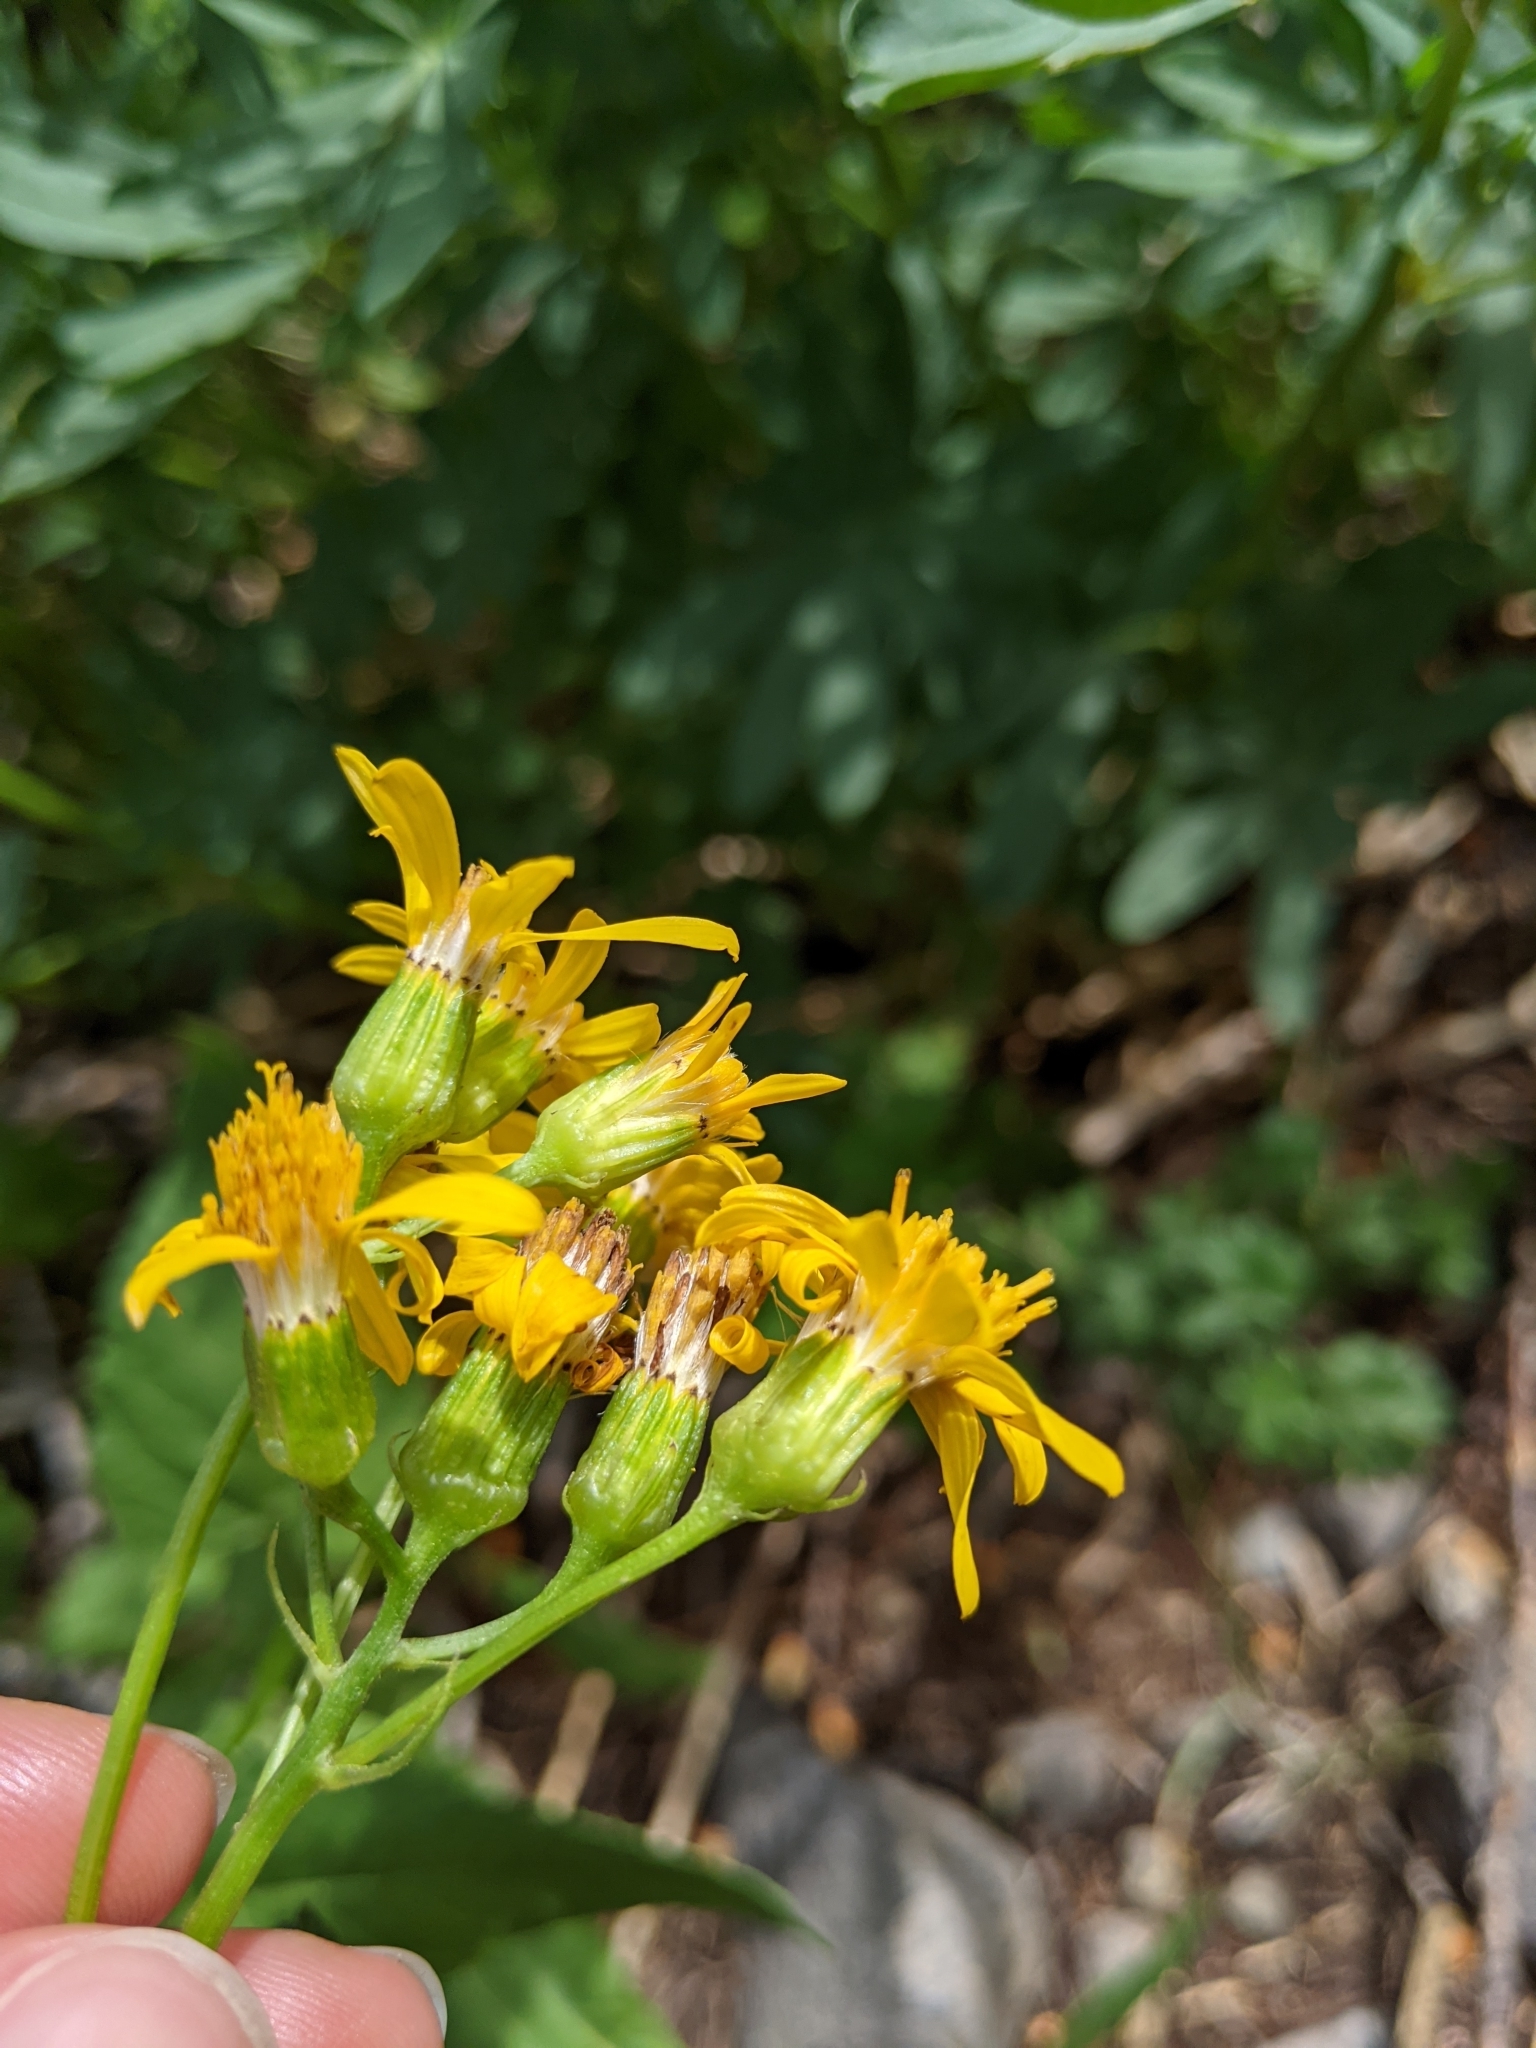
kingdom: Plantae
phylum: Tracheophyta
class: Magnoliopsida
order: Asterales
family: Asteraceae
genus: Senecio
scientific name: Senecio triangularis
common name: Arrowleaf butterweed
